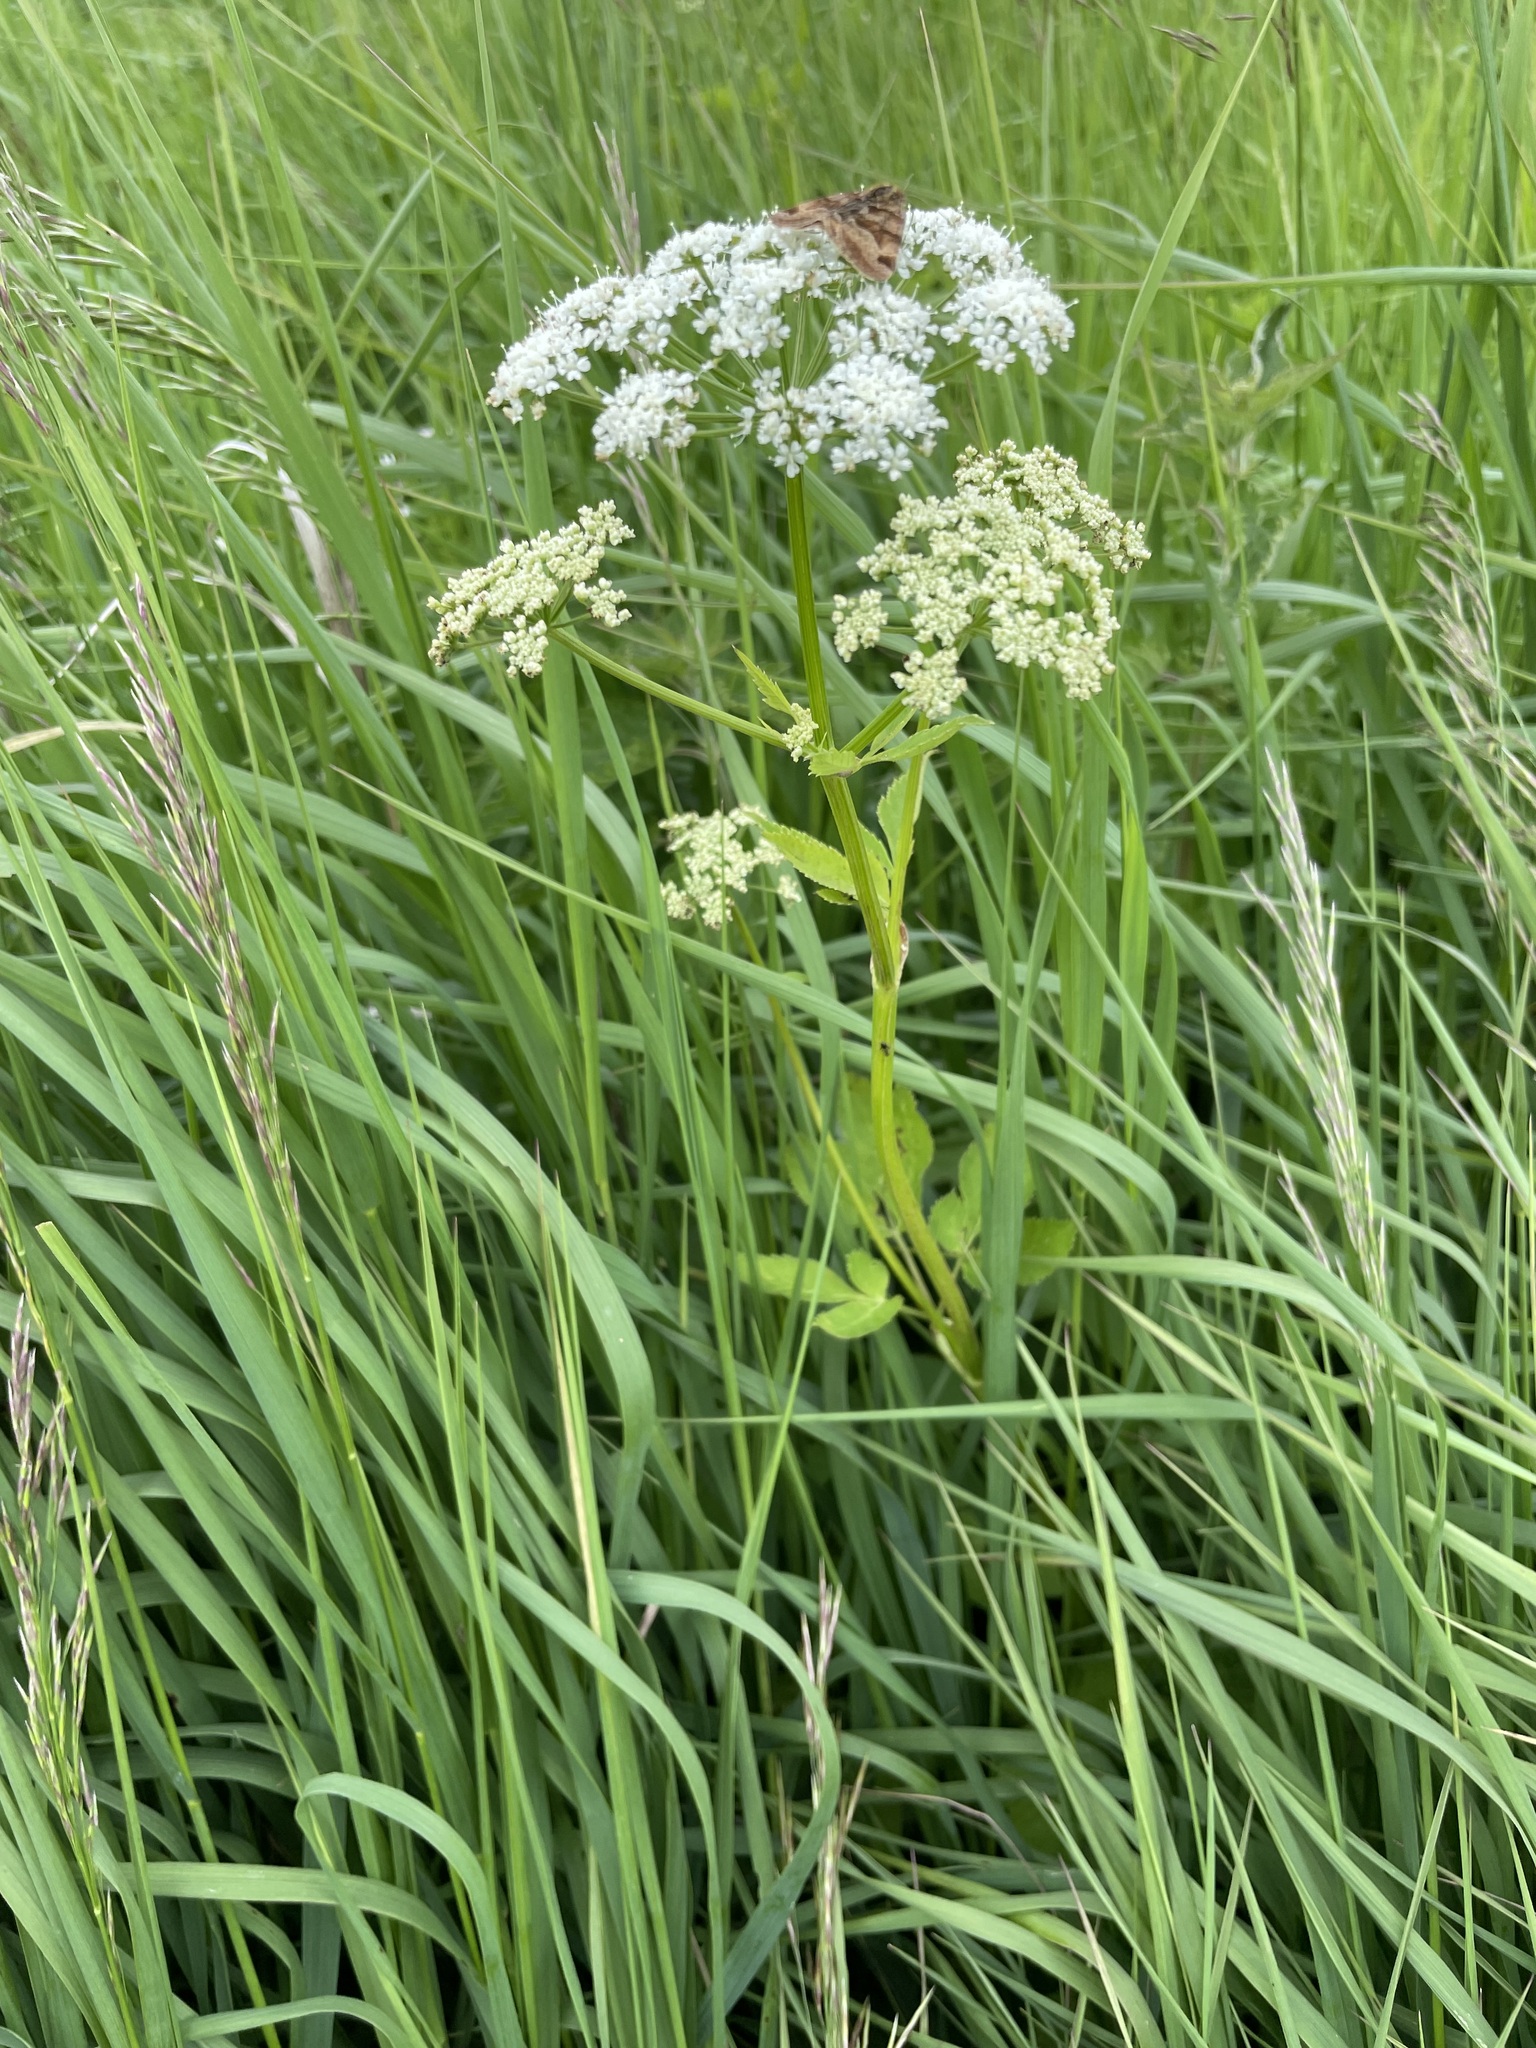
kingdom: Plantae
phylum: Tracheophyta
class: Magnoliopsida
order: Apiales
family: Apiaceae
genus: Aegopodium
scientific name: Aegopodium podagraria
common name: Ground-elder
